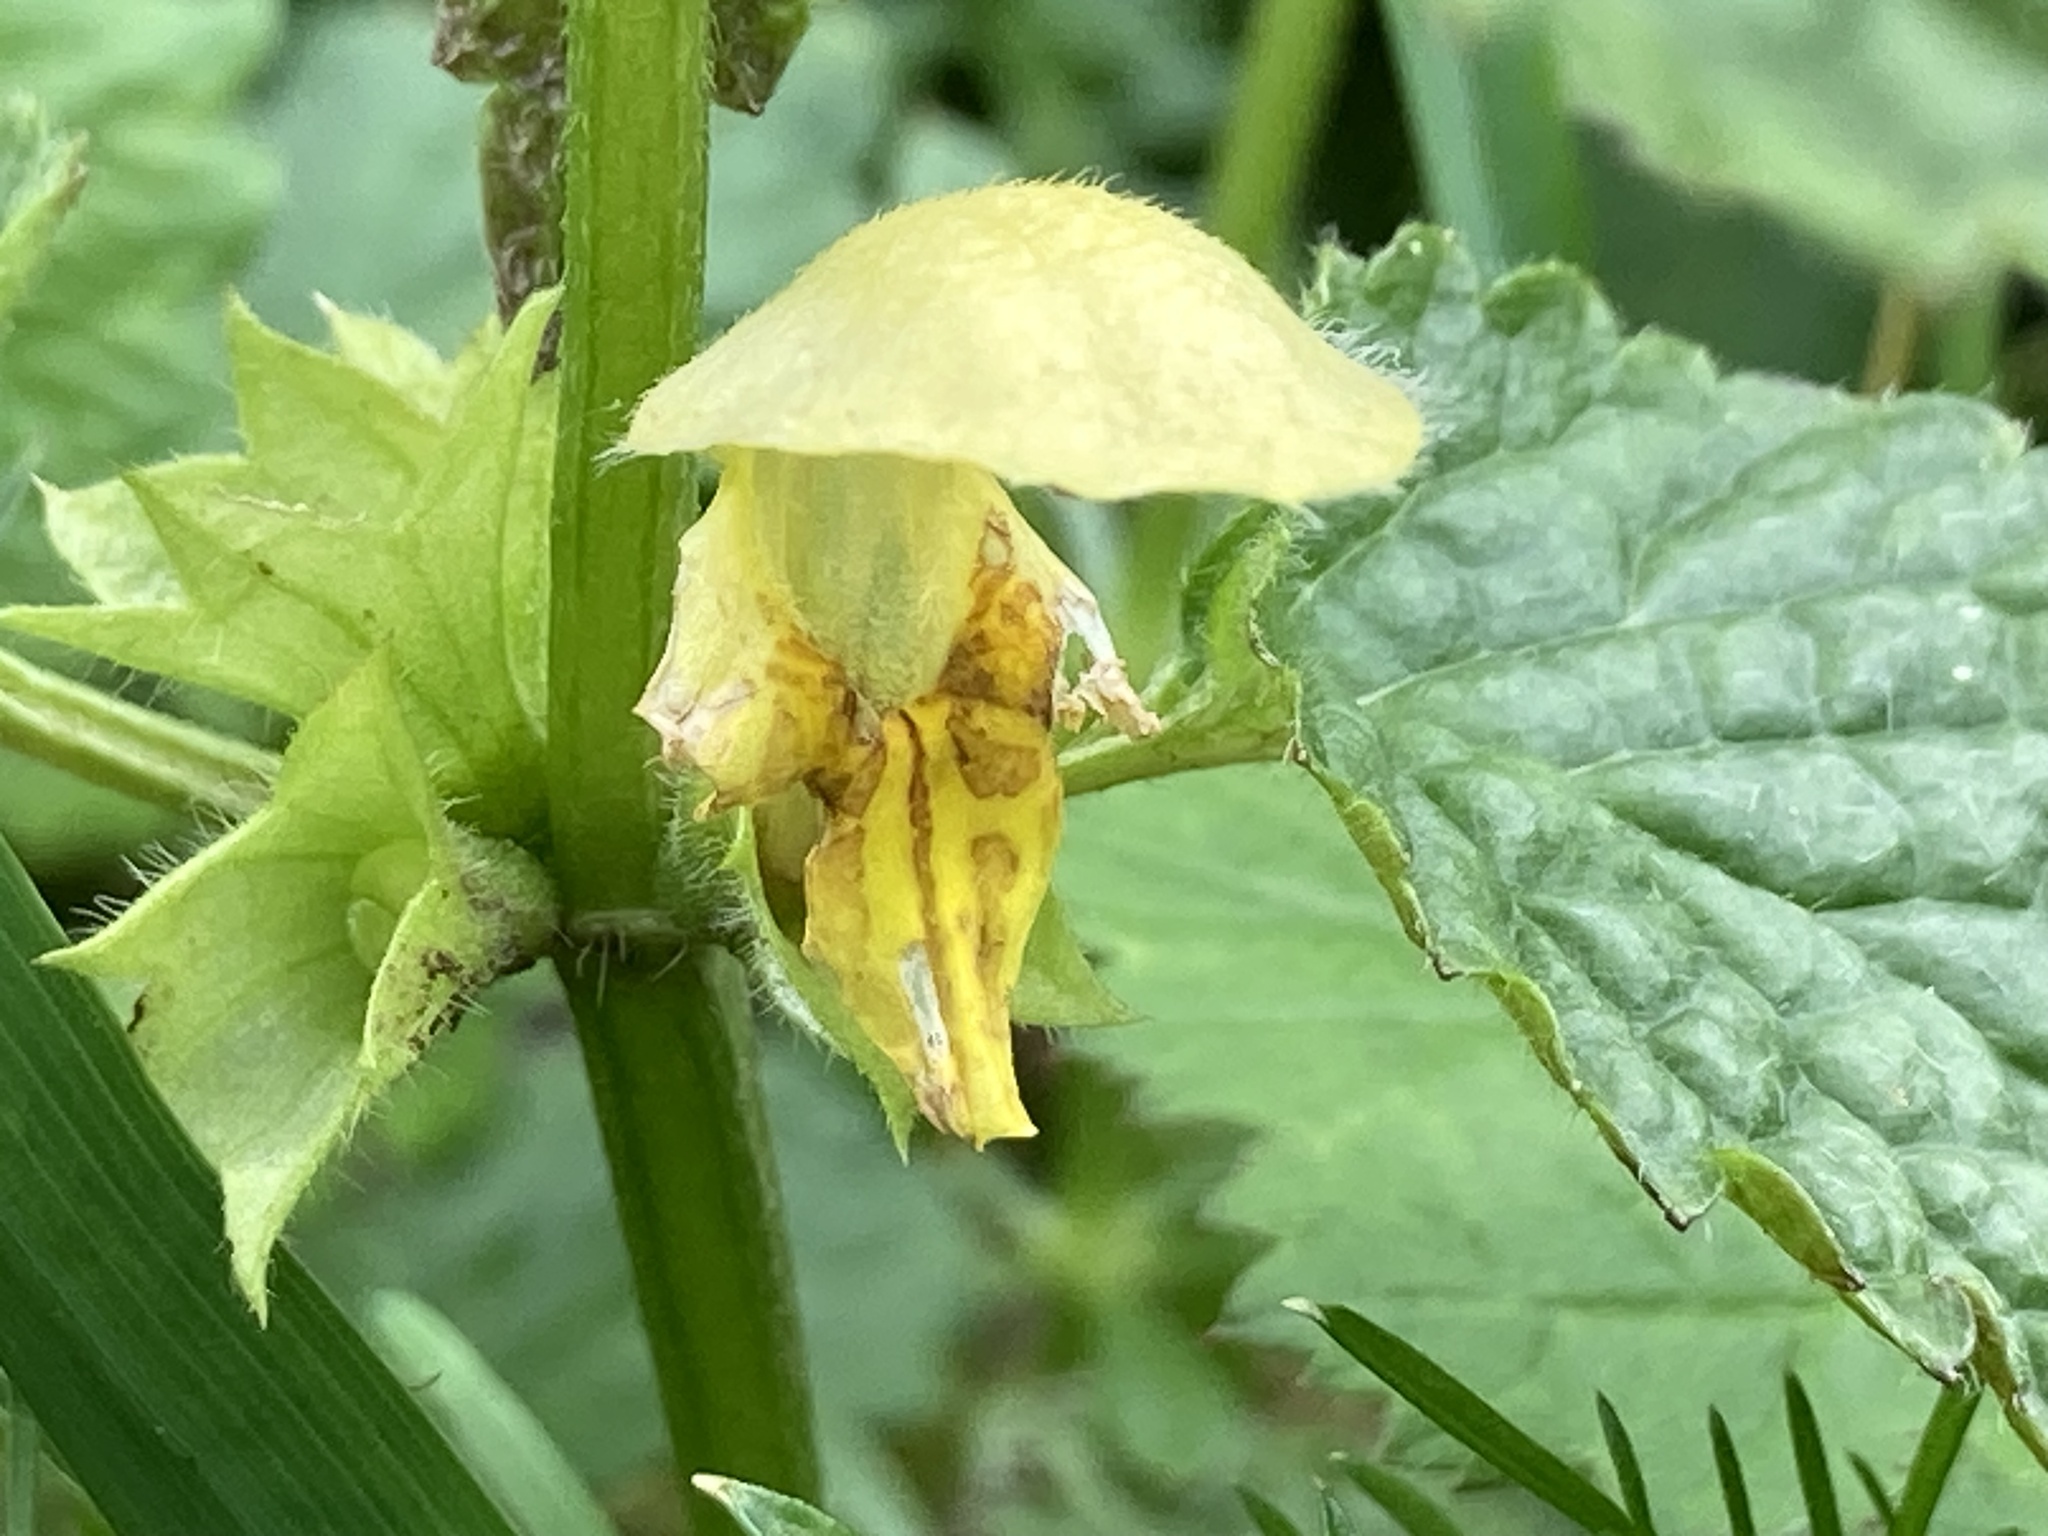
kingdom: Plantae
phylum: Tracheophyta
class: Magnoliopsida
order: Lamiales
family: Lamiaceae
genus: Lamium
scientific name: Lamium galeobdolon
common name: Yellow archangel
